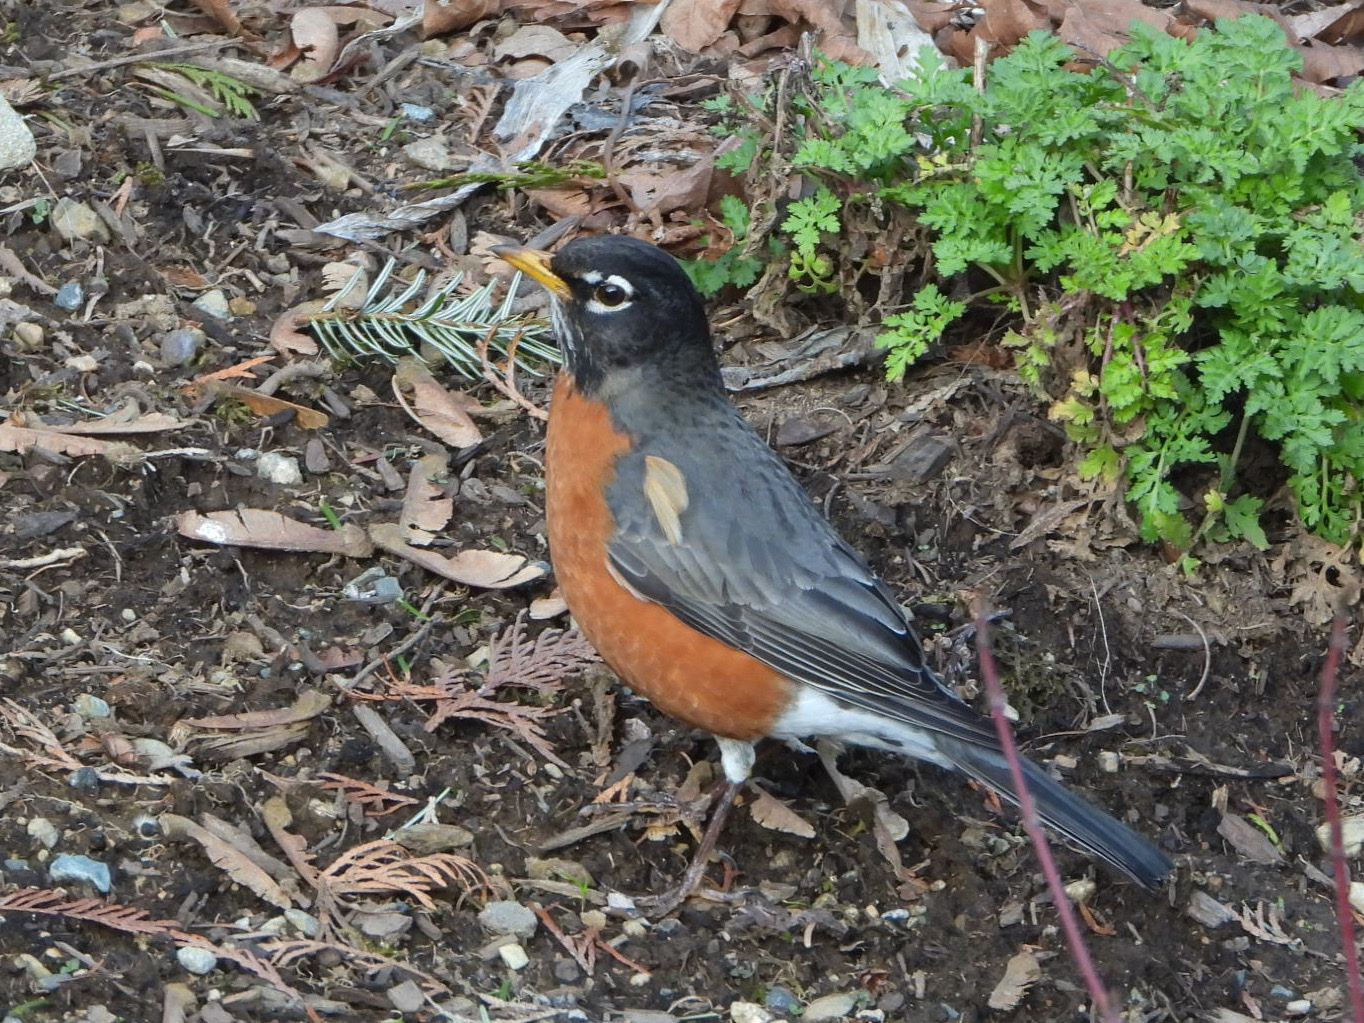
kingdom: Animalia
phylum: Chordata
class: Aves
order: Passeriformes
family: Turdidae
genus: Turdus
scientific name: Turdus migratorius
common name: American robin
